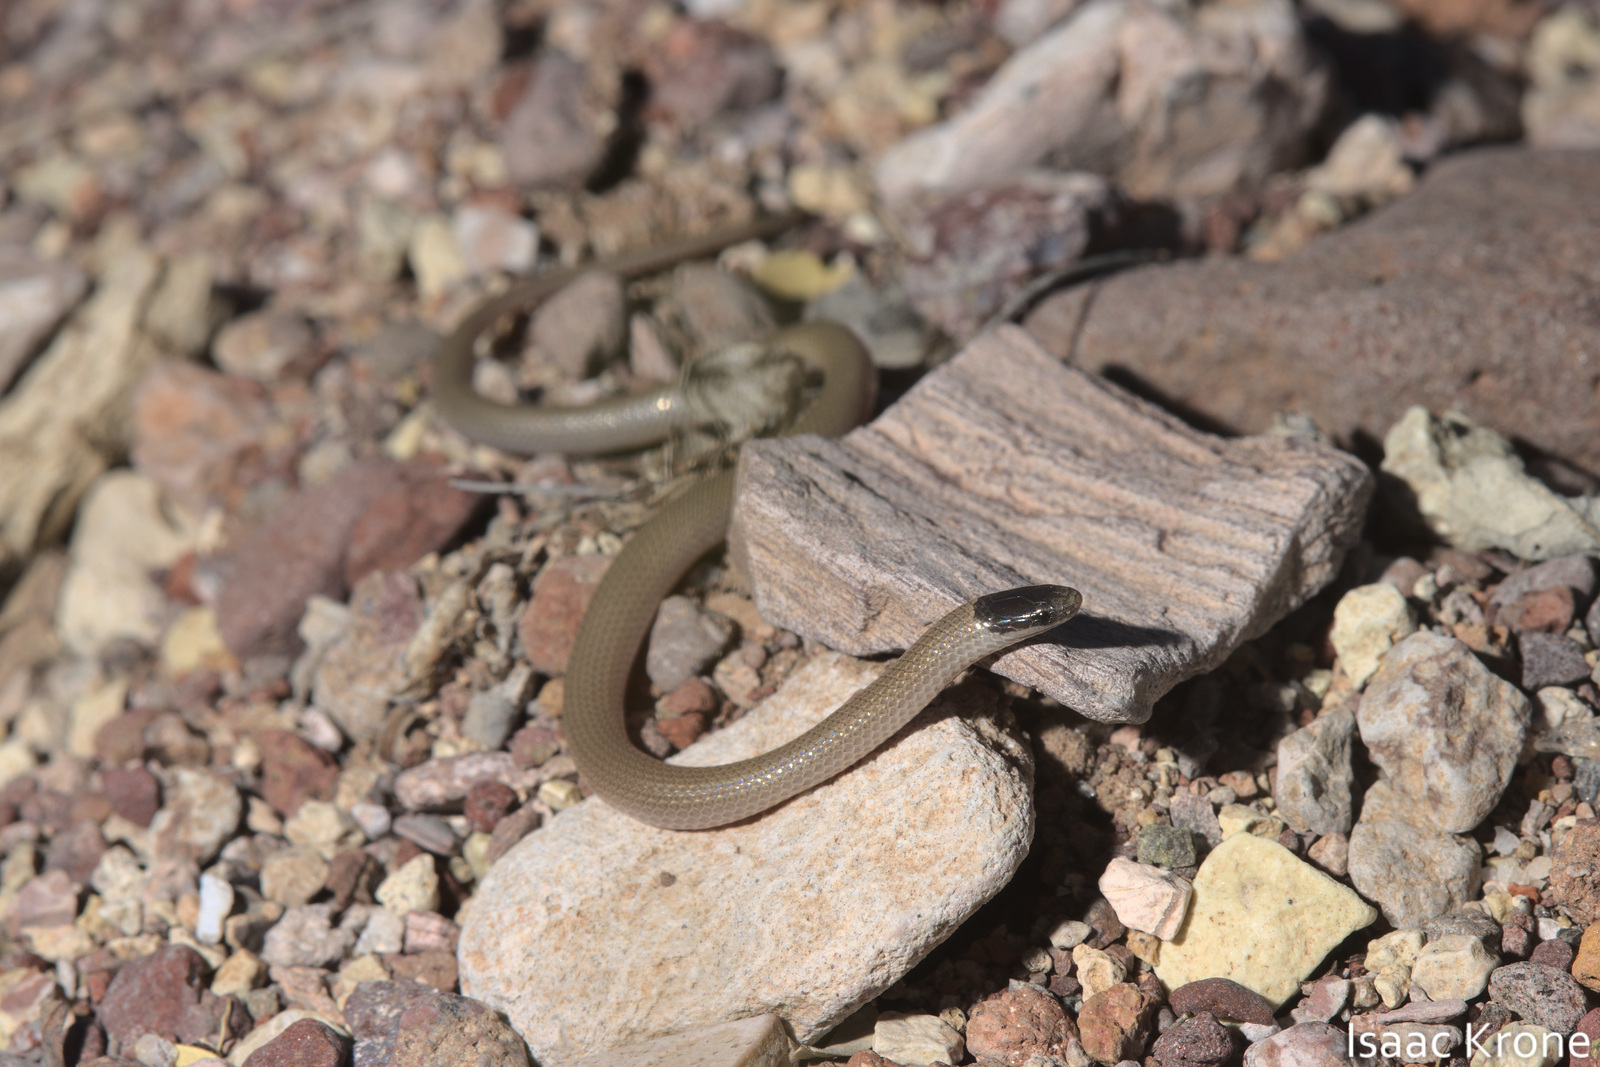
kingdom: Animalia
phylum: Chordata
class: Squamata
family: Colubridae
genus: Tantilla
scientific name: Tantilla hobartsmithi
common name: Southwestern blackhead snake
